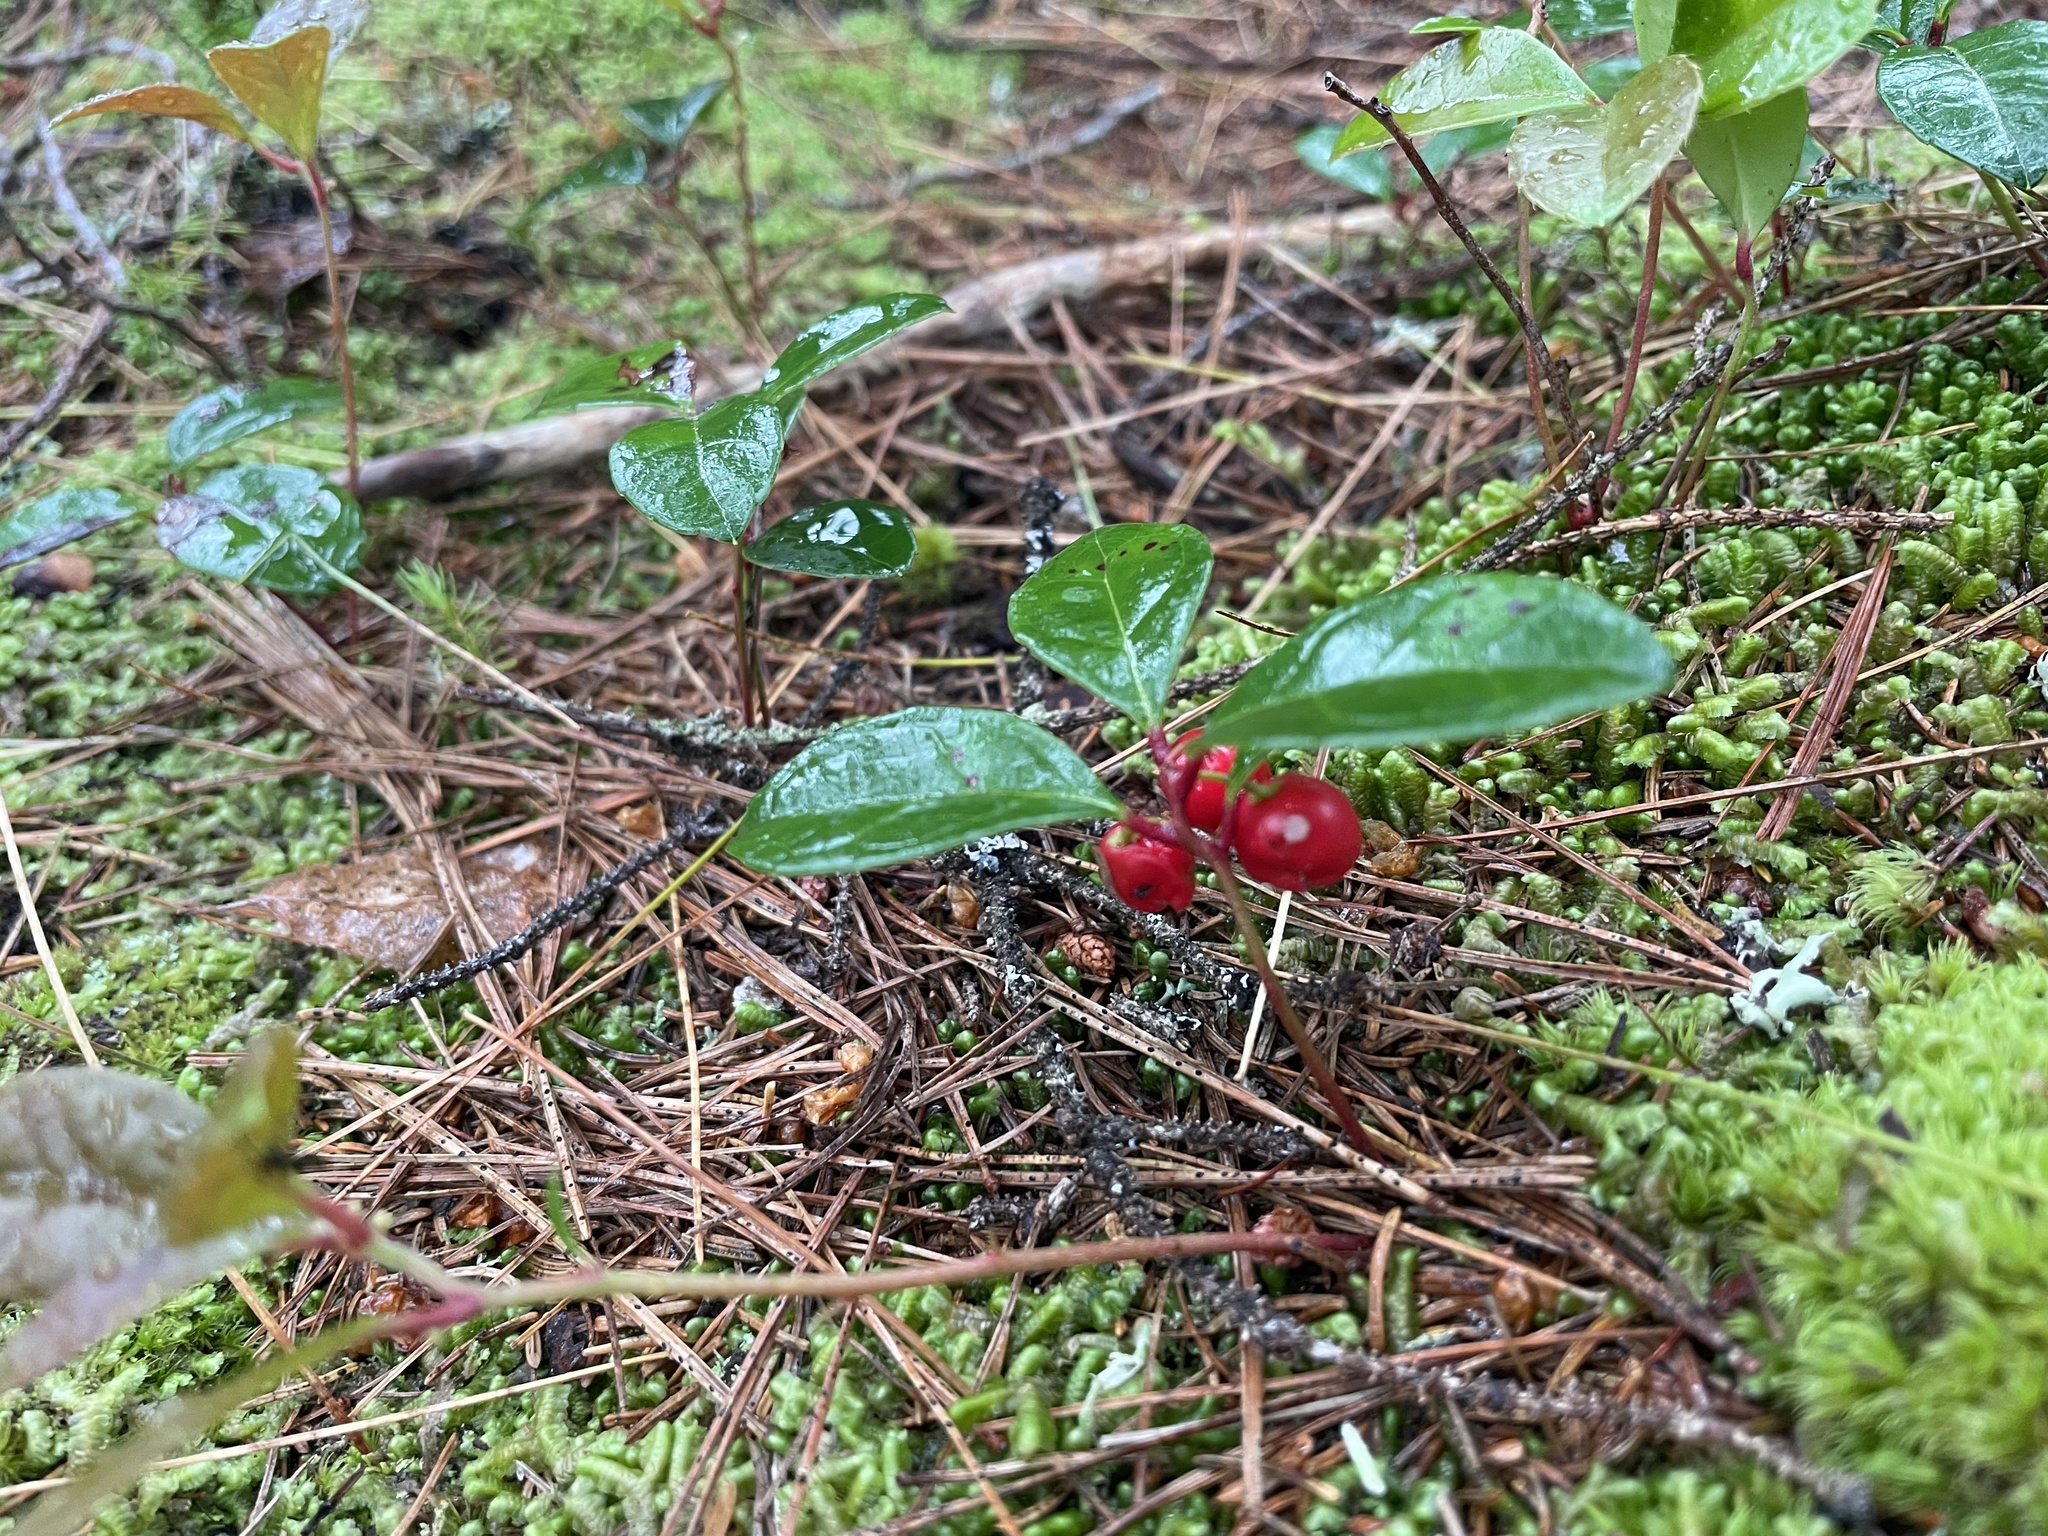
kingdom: Plantae
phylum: Tracheophyta
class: Magnoliopsida
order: Ericales
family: Ericaceae
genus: Gaultheria
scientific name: Gaultheria procumbens
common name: Checkerberry
